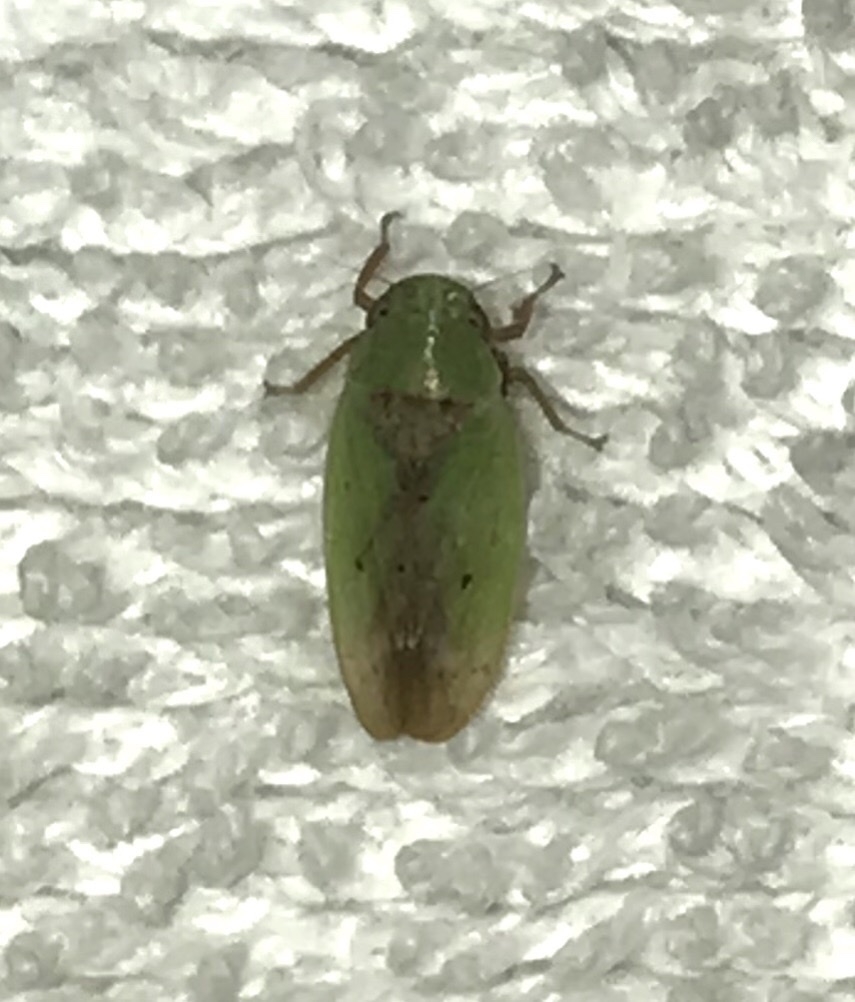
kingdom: Animalia
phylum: Arthropoda
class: Insecta
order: Hemiptera
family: Cicadellidae
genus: Ponana
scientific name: Ponana
